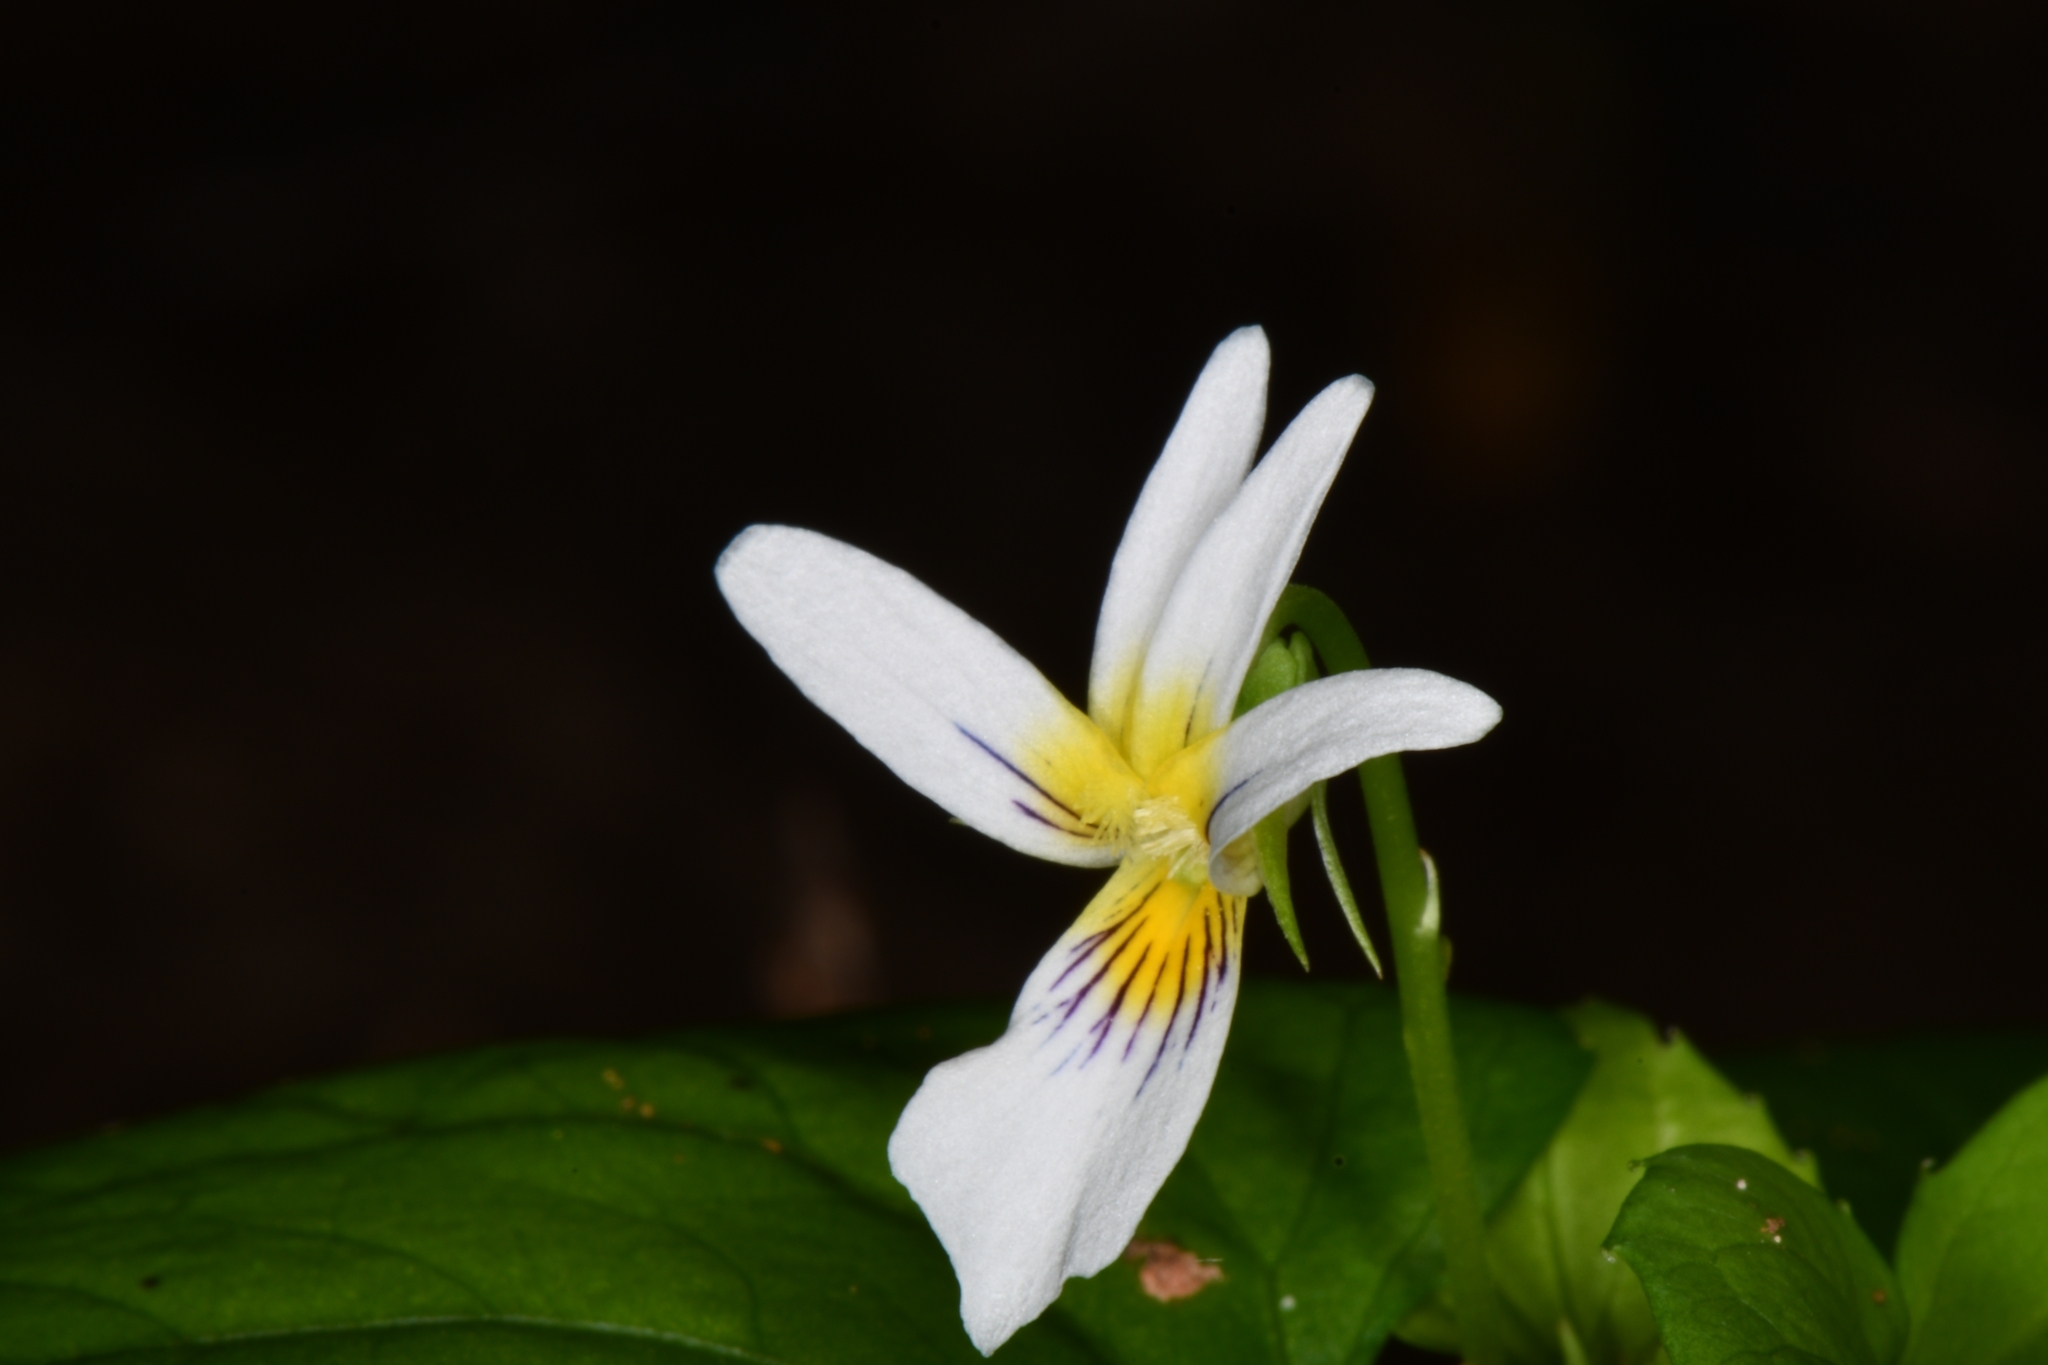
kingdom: Plantae
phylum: Tracheophyta
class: Magnoliopsida
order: Malpighiales
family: Violaceae
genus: Viola
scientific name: Viola canadensis
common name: Canada violet
